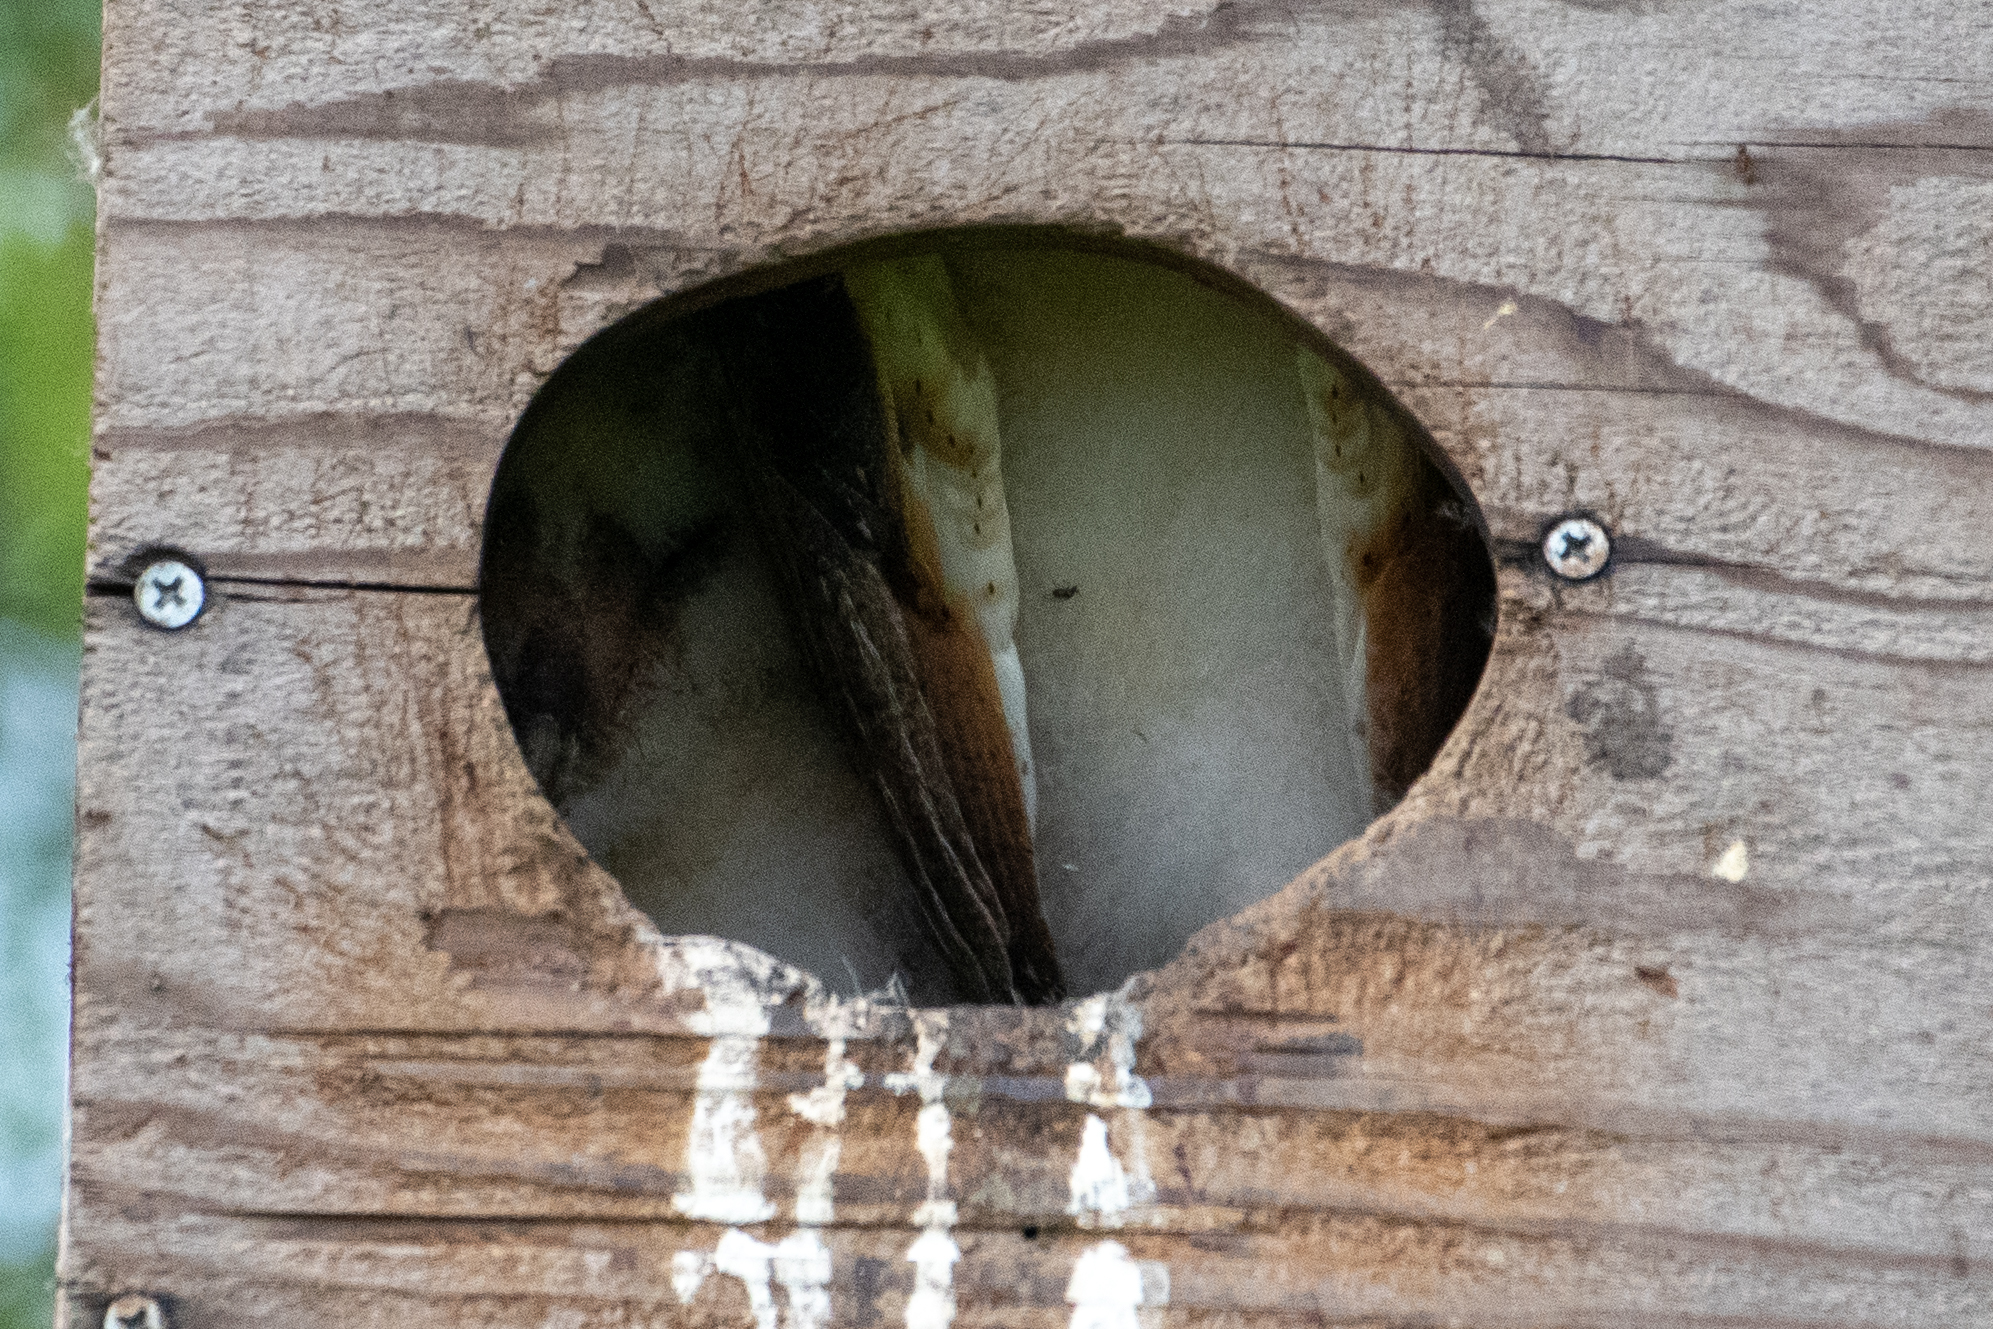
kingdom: Animalia
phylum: Chordata
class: Aves
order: Strigiformes
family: Tytonidae
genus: Tyto
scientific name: Tyto alba
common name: Barn owl
